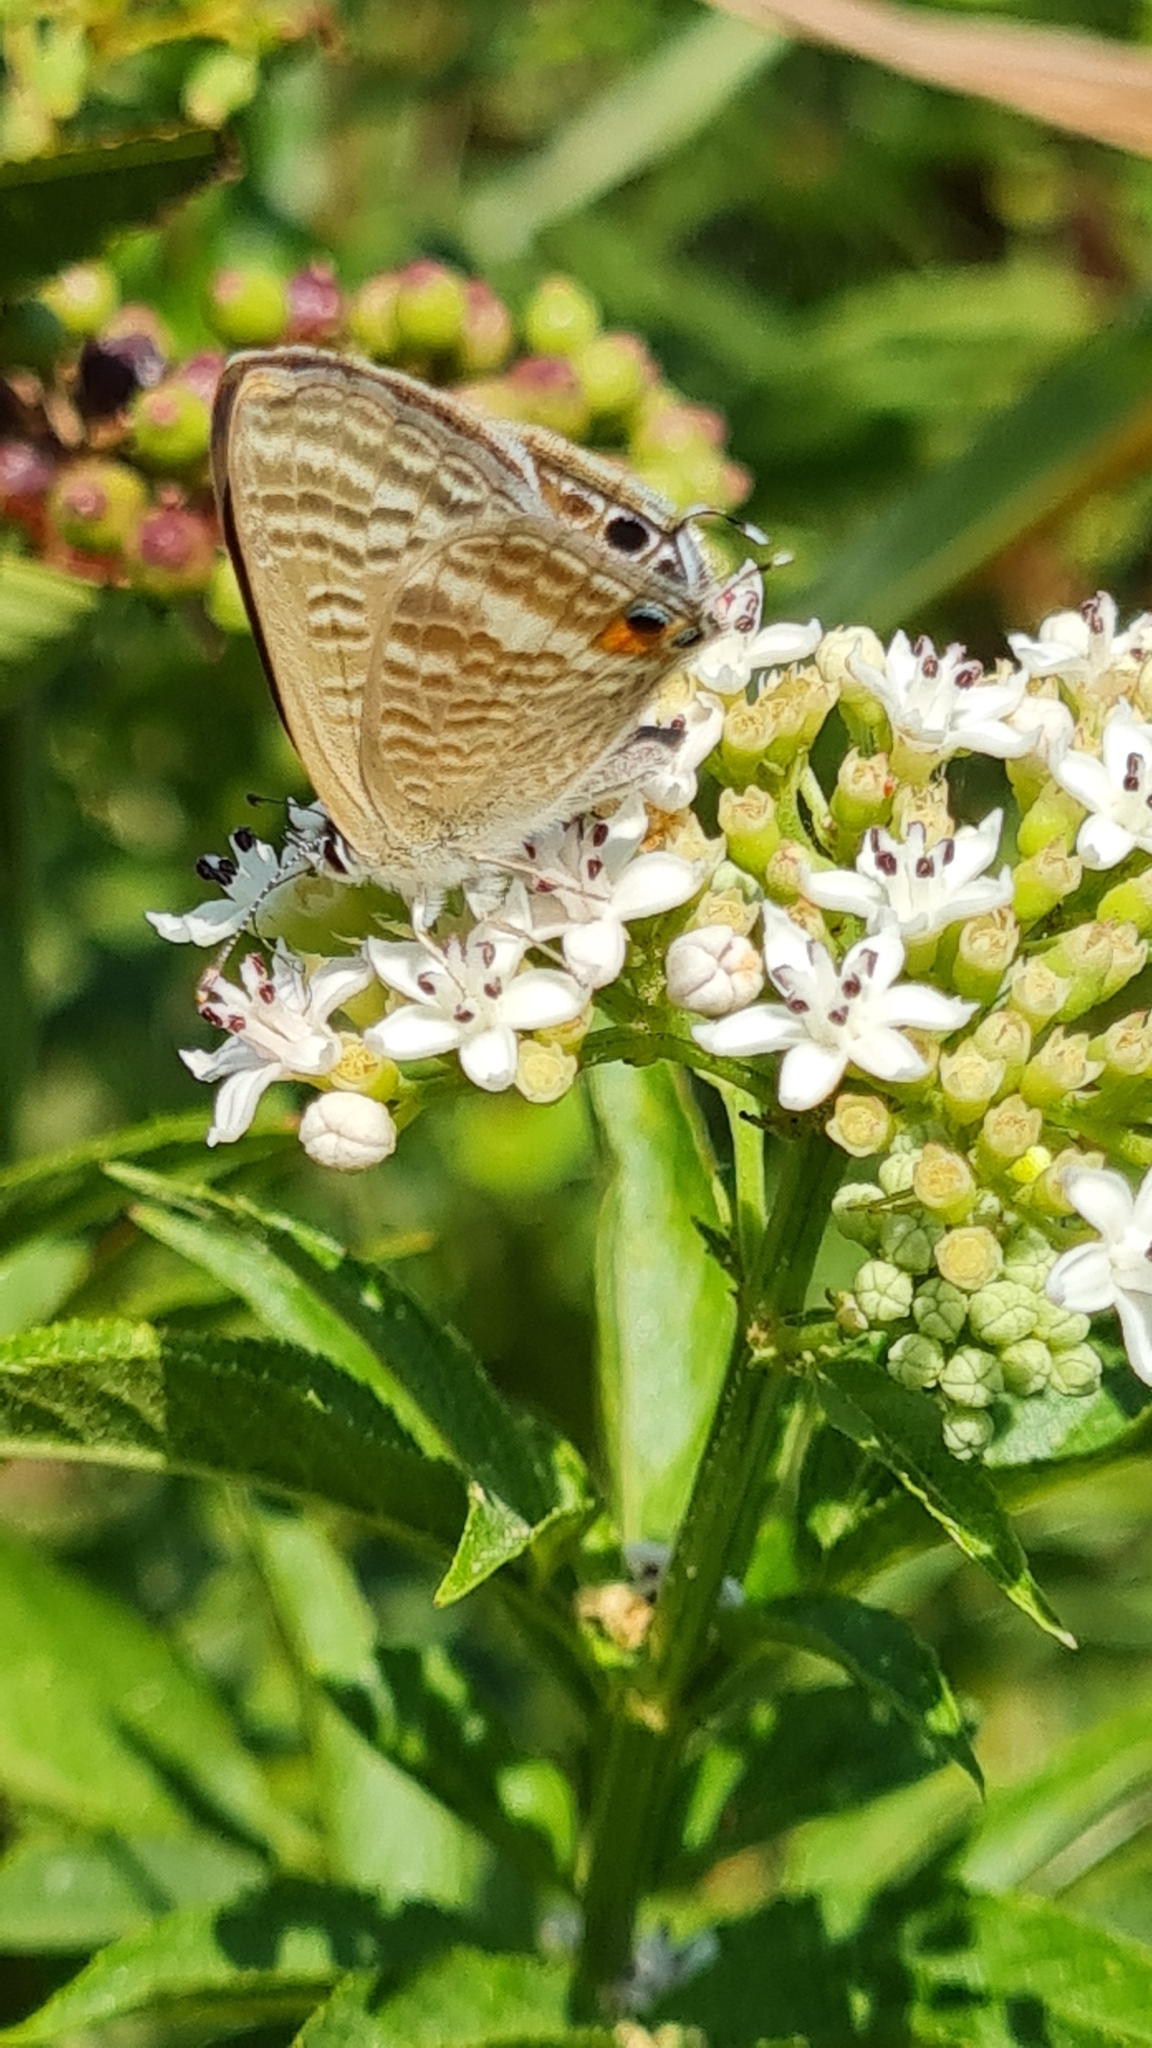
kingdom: Animalia
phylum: Arthropoda
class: Insecta
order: Lepidoptera
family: Lycaenidae
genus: Lampides
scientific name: Lampides boeticus
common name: Long-tailed blue
